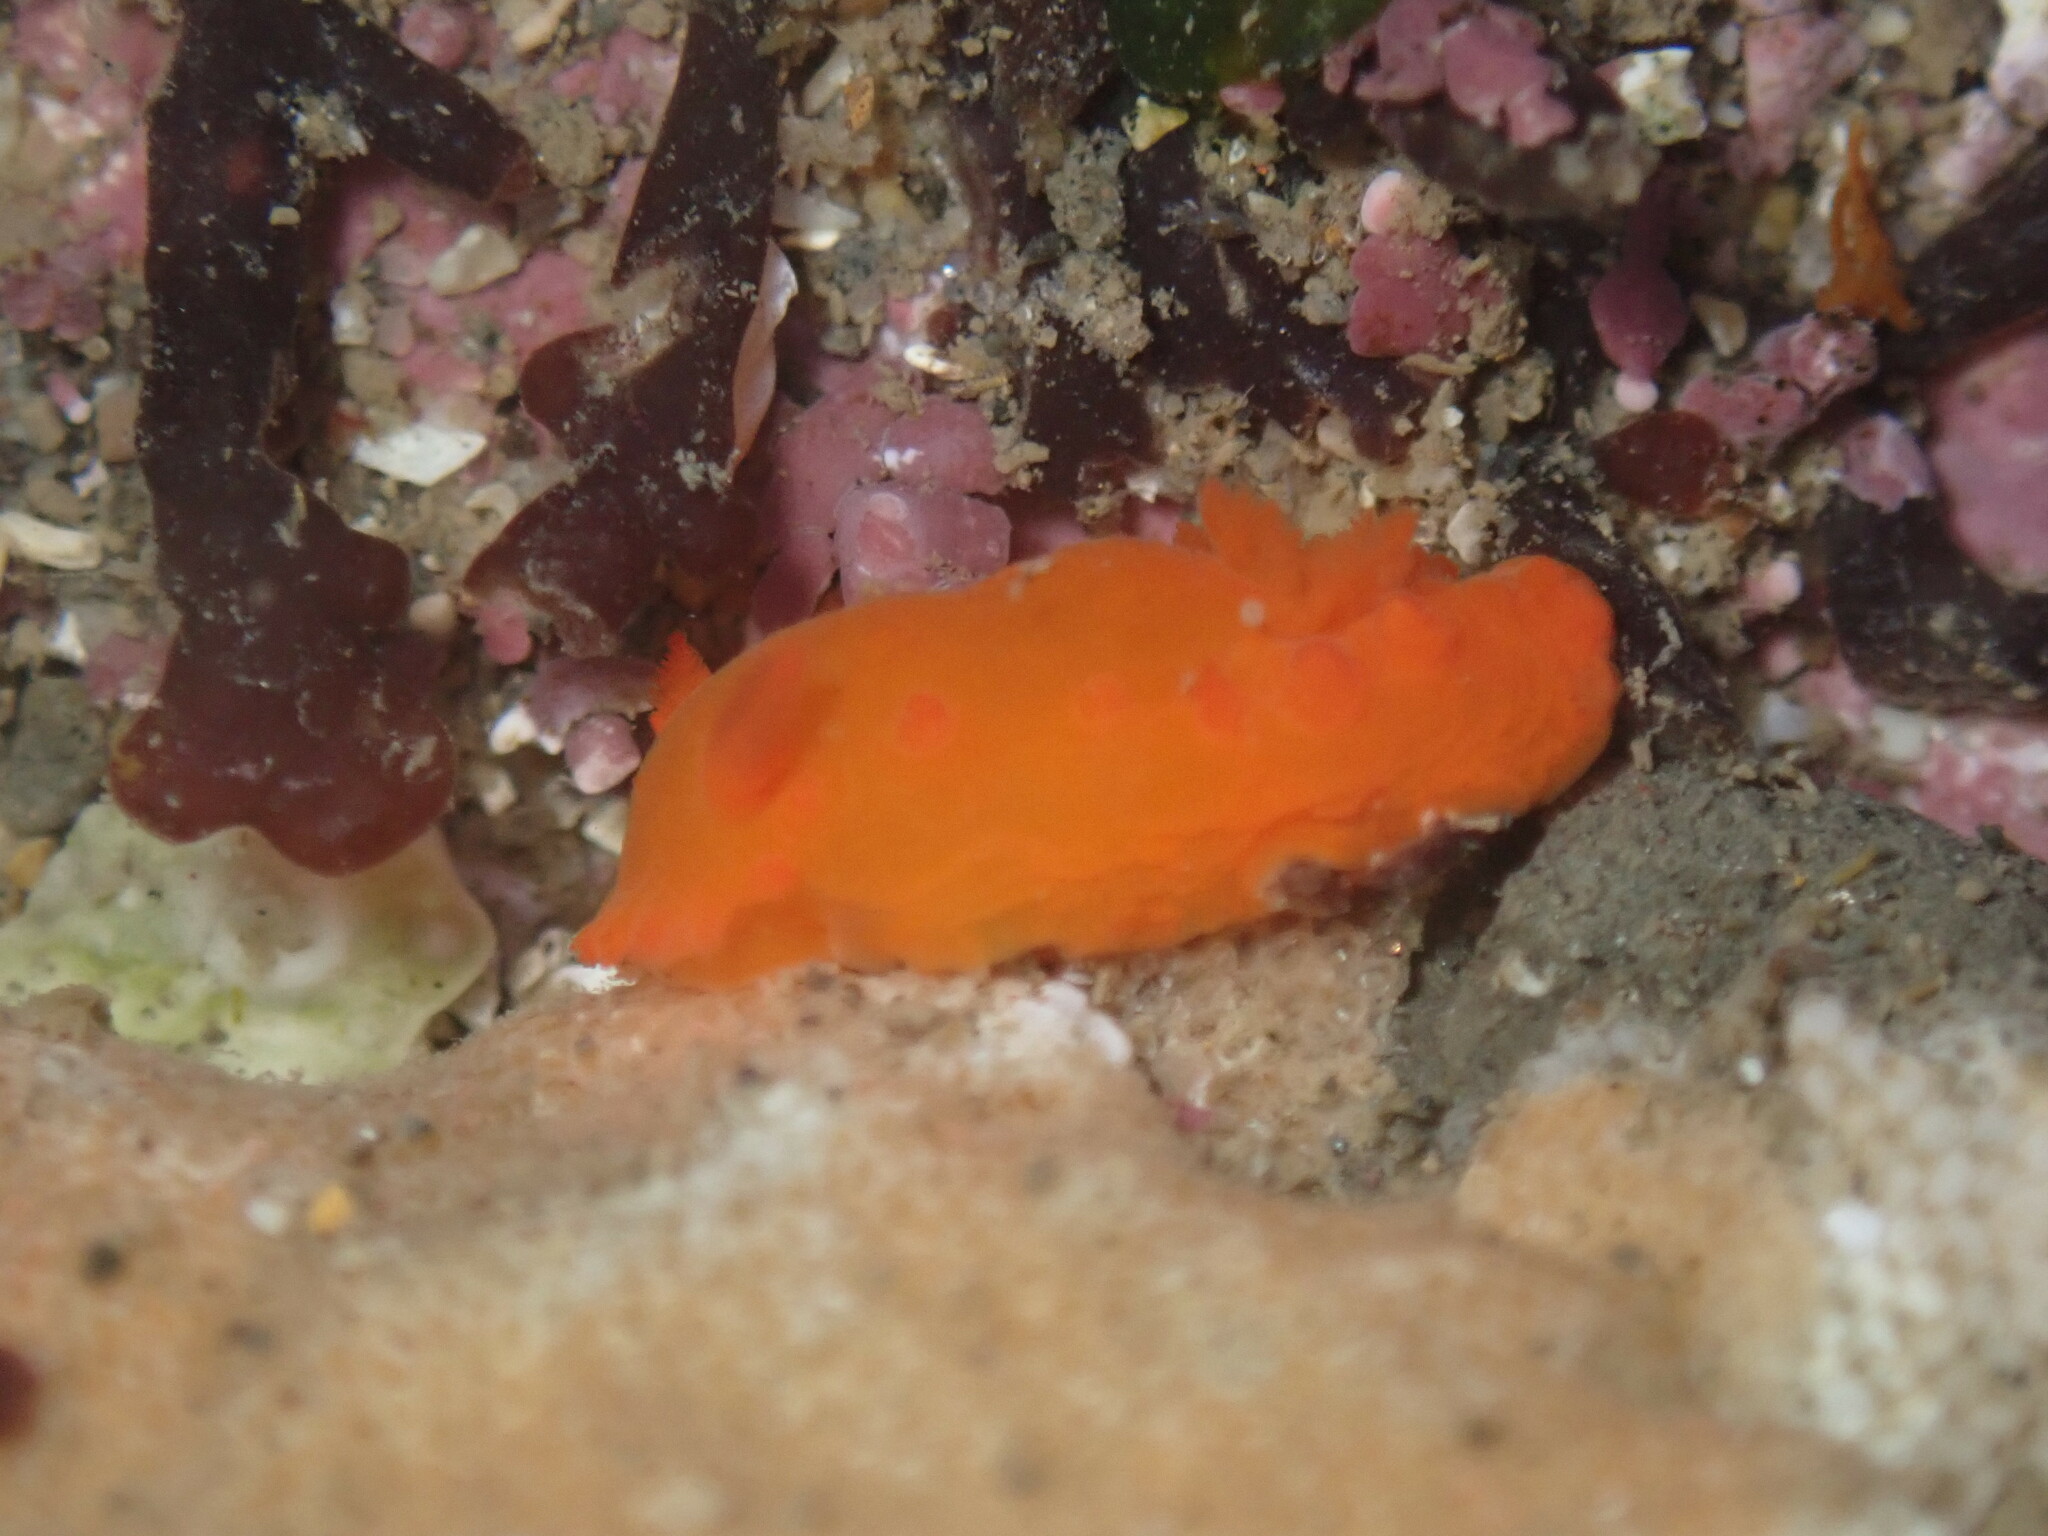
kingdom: Animalia
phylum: Mollusca
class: Gastropoda
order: Nudibranchia
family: Polyceridae
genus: Triopha
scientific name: Triopha maculata
